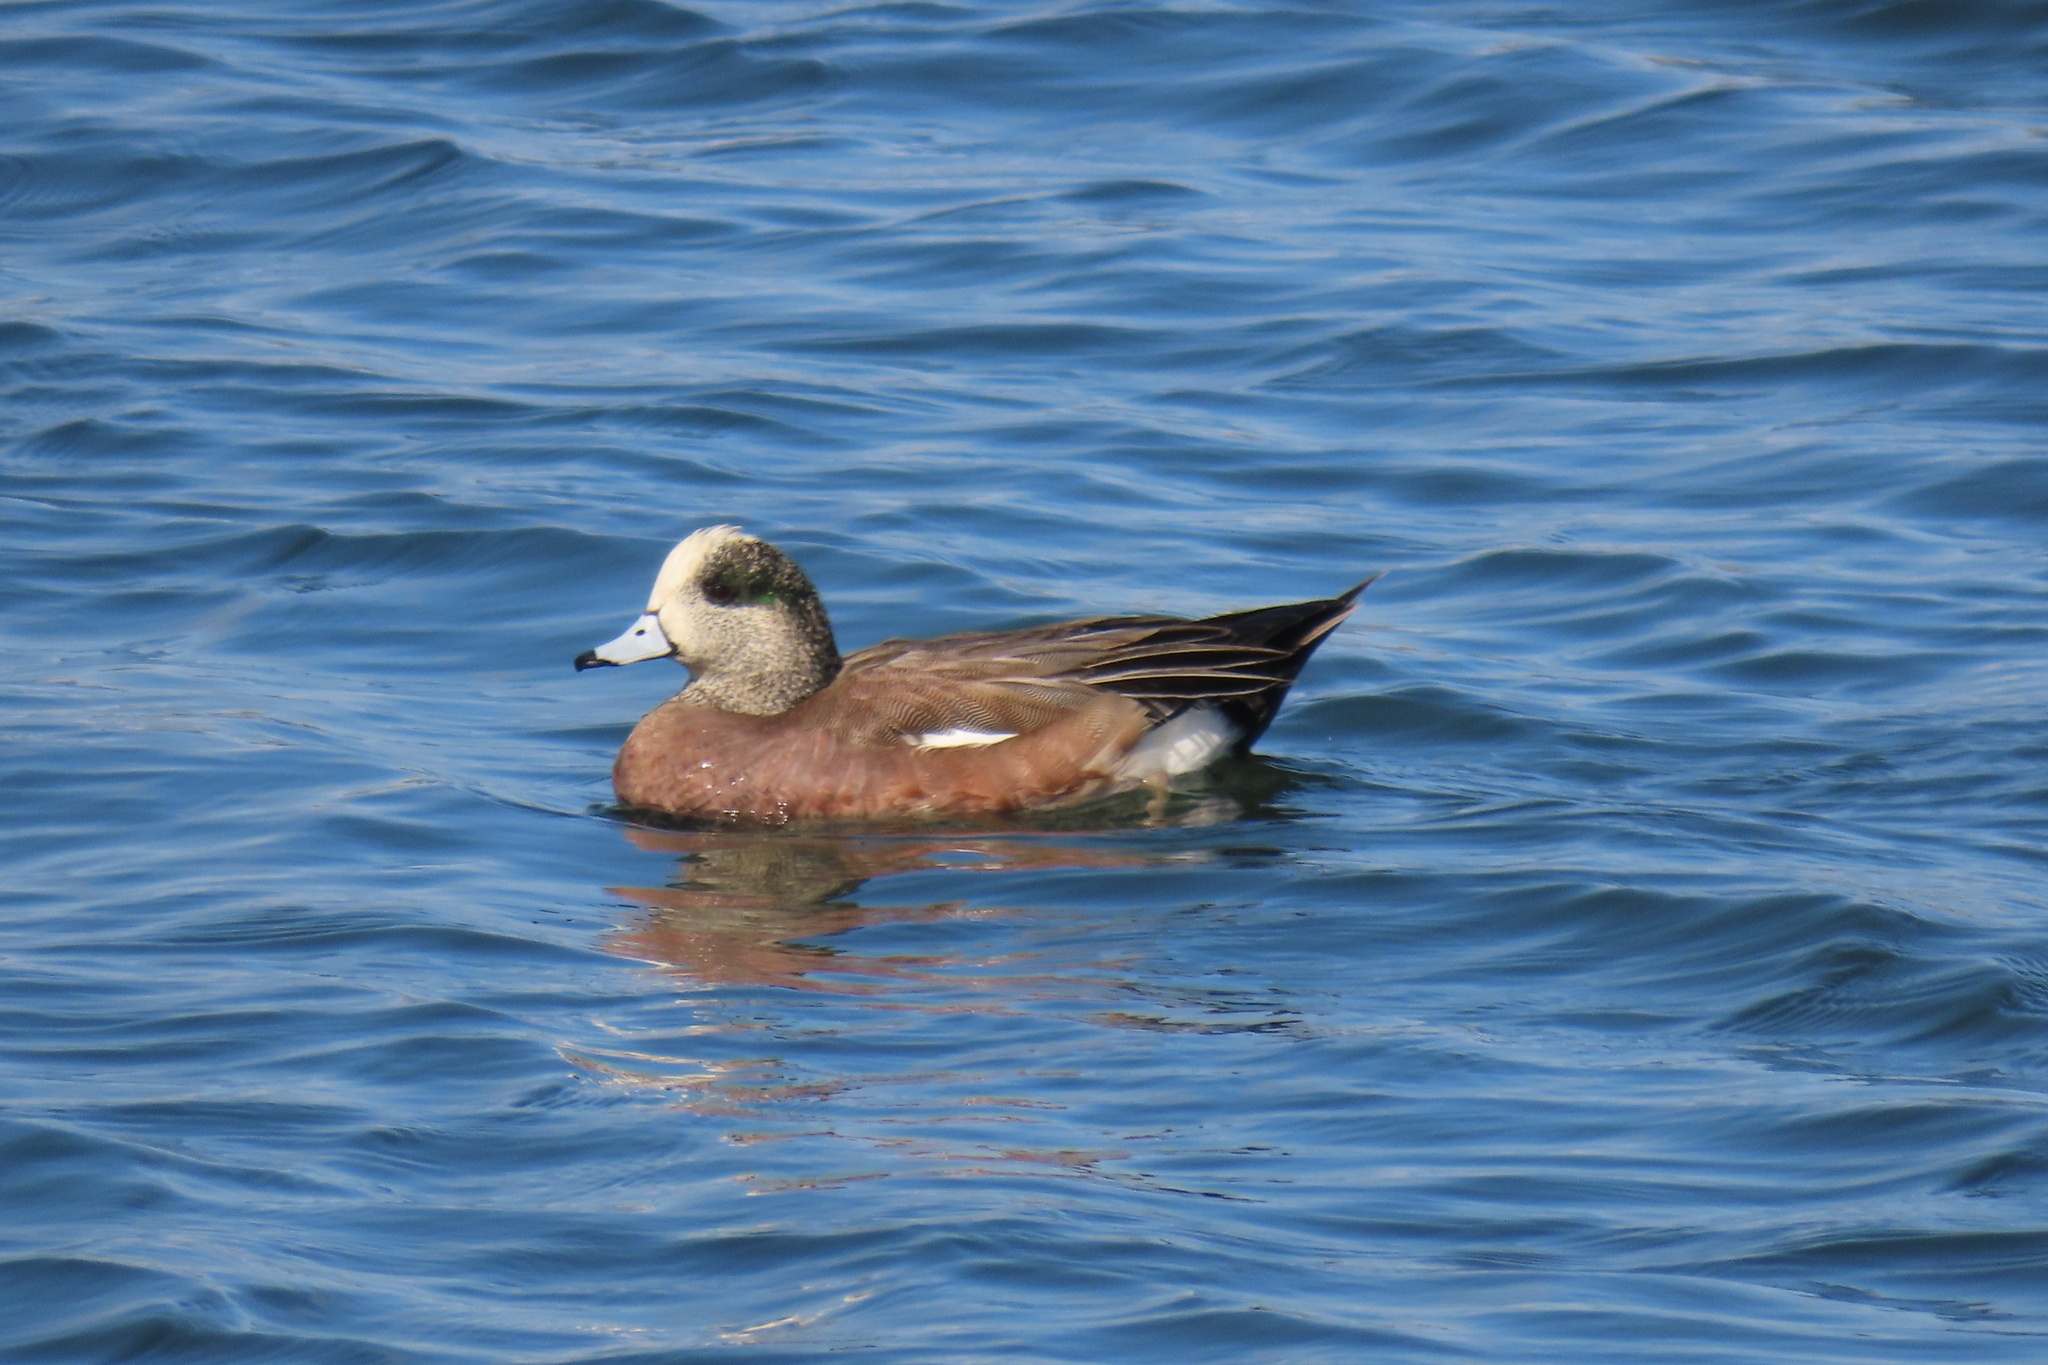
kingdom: Animalia
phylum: Chordata
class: Aves
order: Anseriformes
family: Anatidae
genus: Mareca
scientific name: Mareca americana
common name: American wigeon
